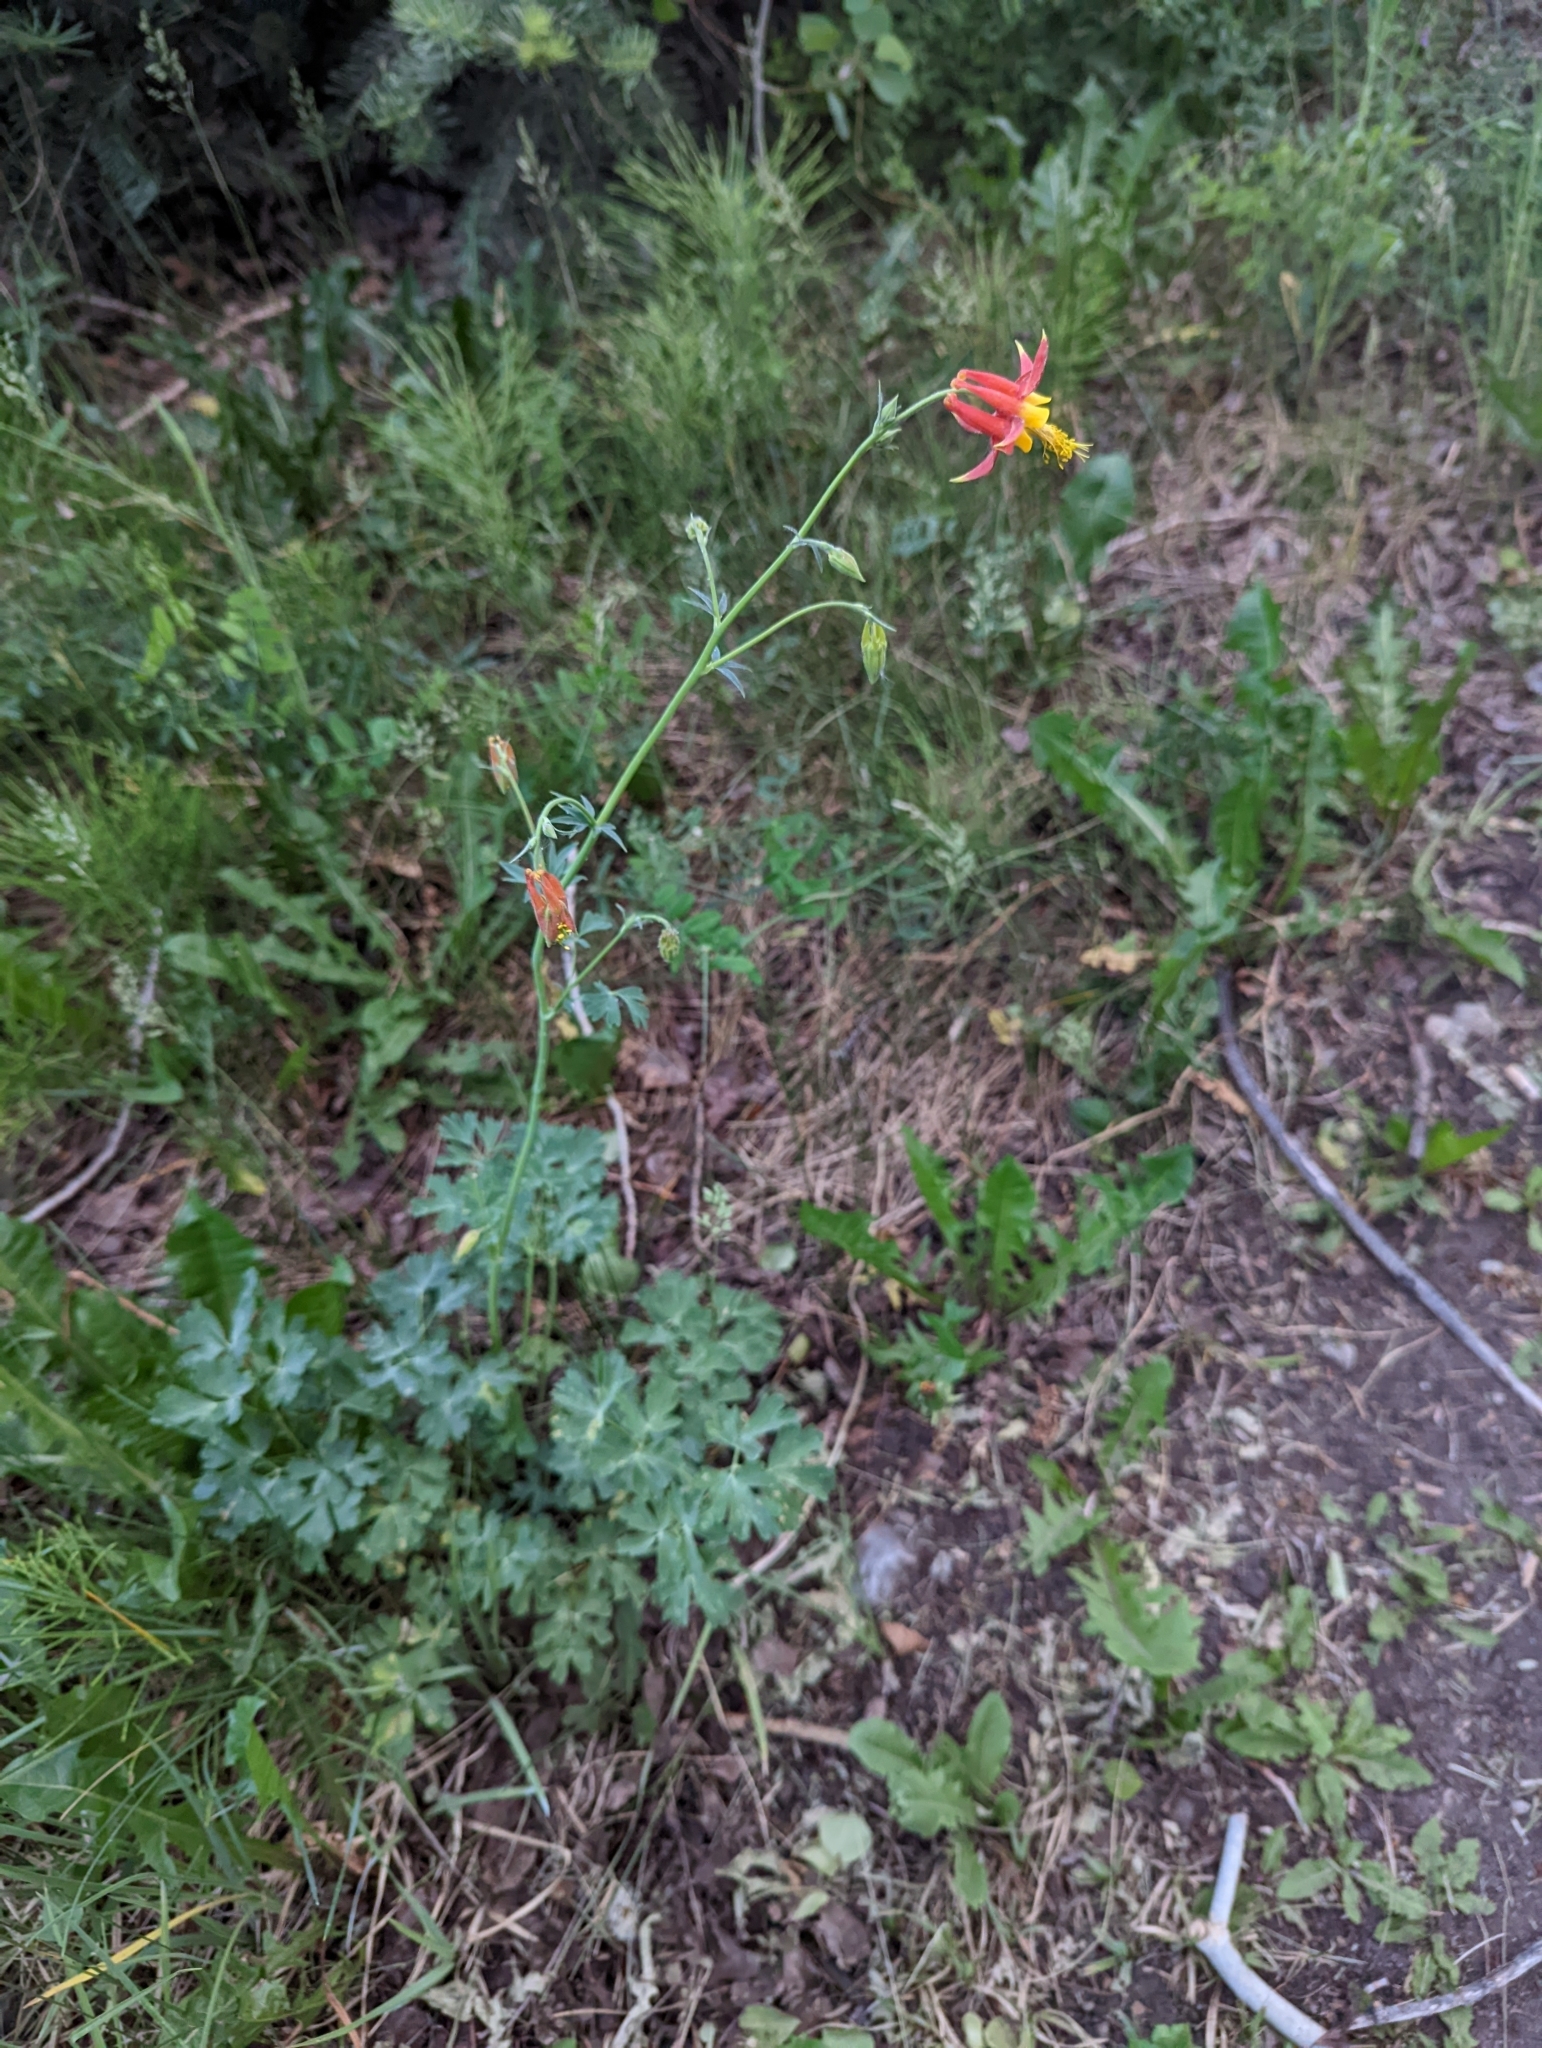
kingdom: Plantae
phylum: Tracheophyta
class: Magnoliopsida
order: Ranunculales
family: Ranunculaceae
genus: Aquilegia
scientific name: Aquilegia formosa
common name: Sitka columbine
